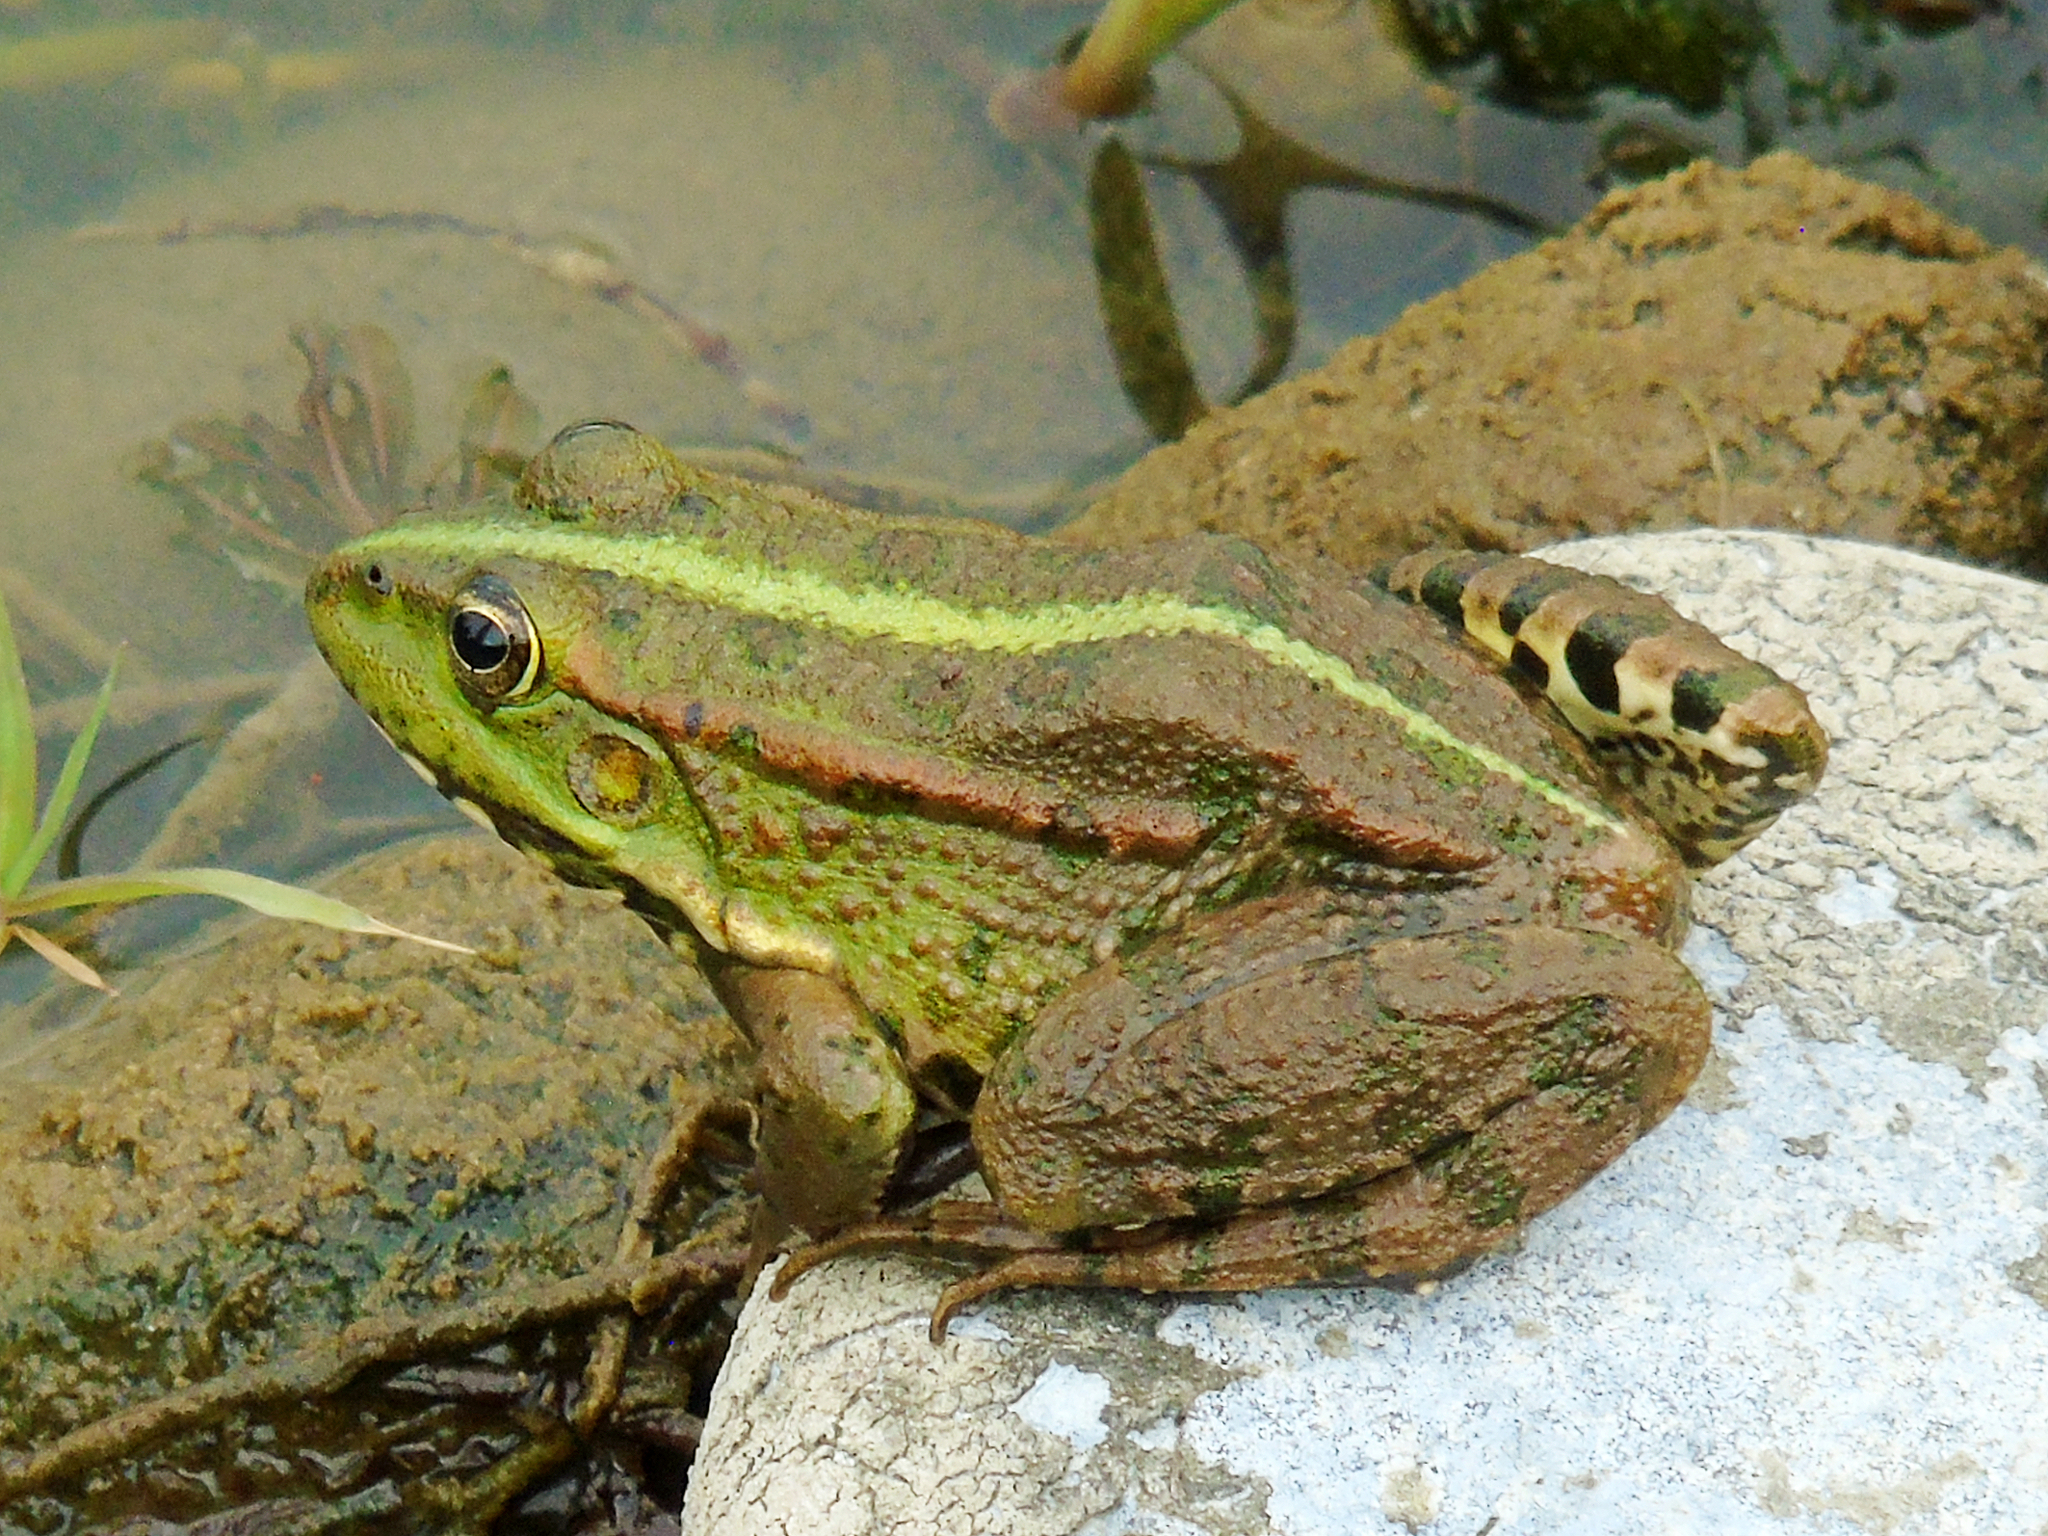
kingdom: Animalia
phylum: Chordata
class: Amphibia
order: Anura
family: Ranidae
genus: Pelophylax
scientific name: Pelophylax ridibundus
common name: Marsh frog
